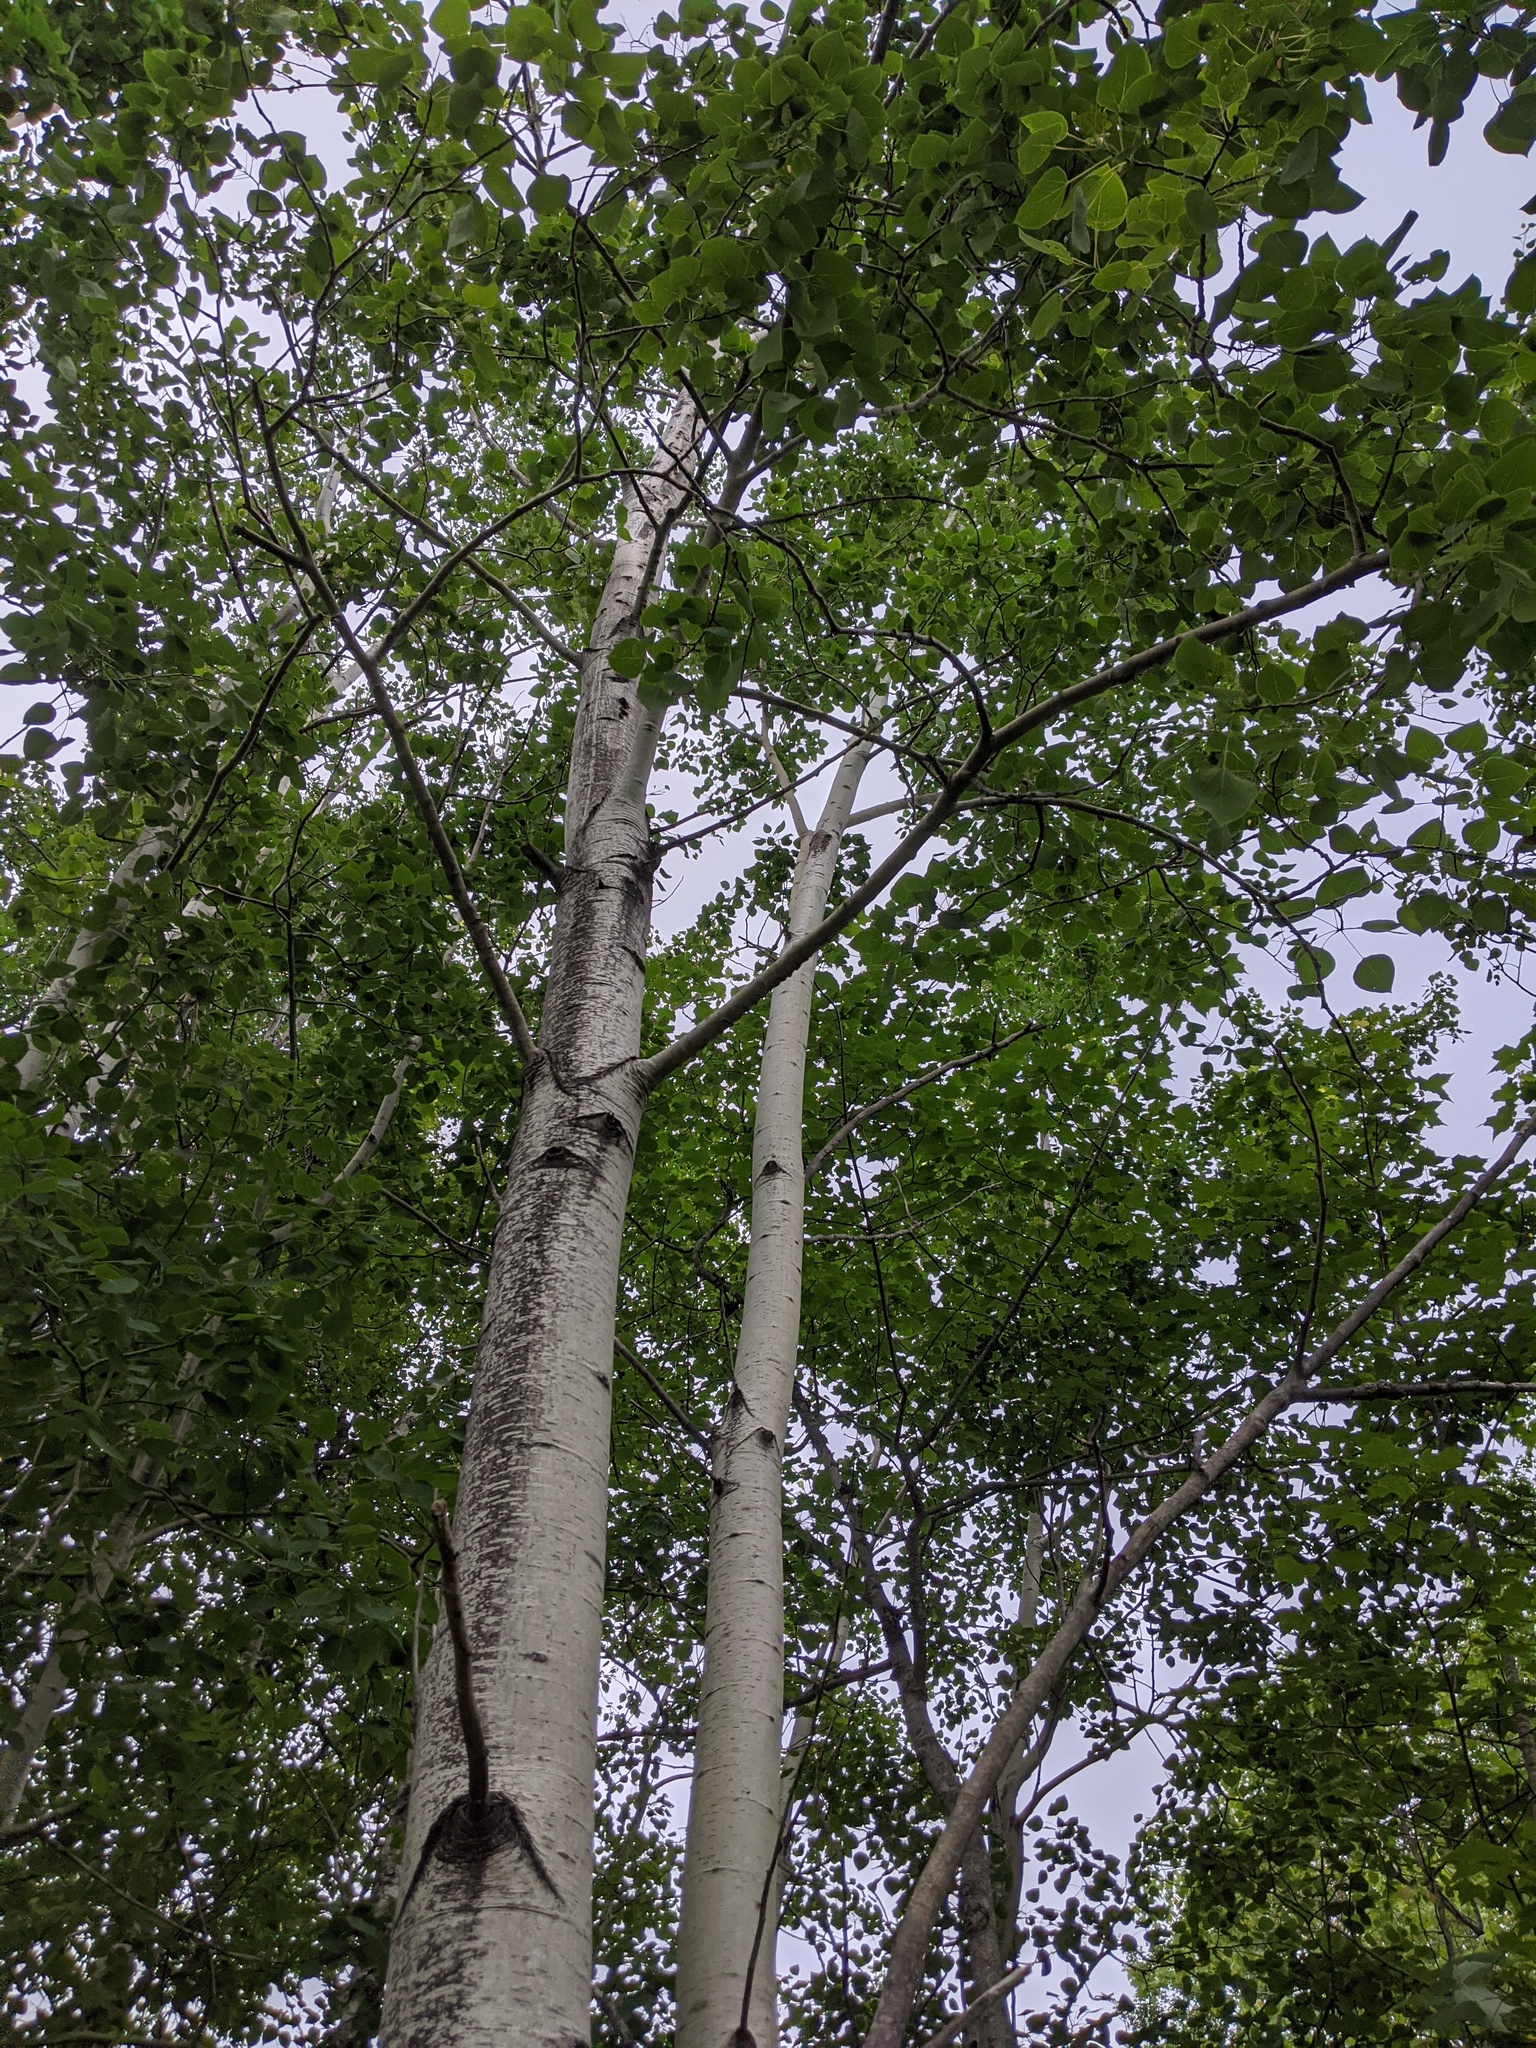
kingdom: Plantae
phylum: Tracheophyta
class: Magnoliopsida
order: Malpighiales
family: Salicaceae
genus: Populus
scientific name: Populus tremuloides
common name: Quaking aspen
